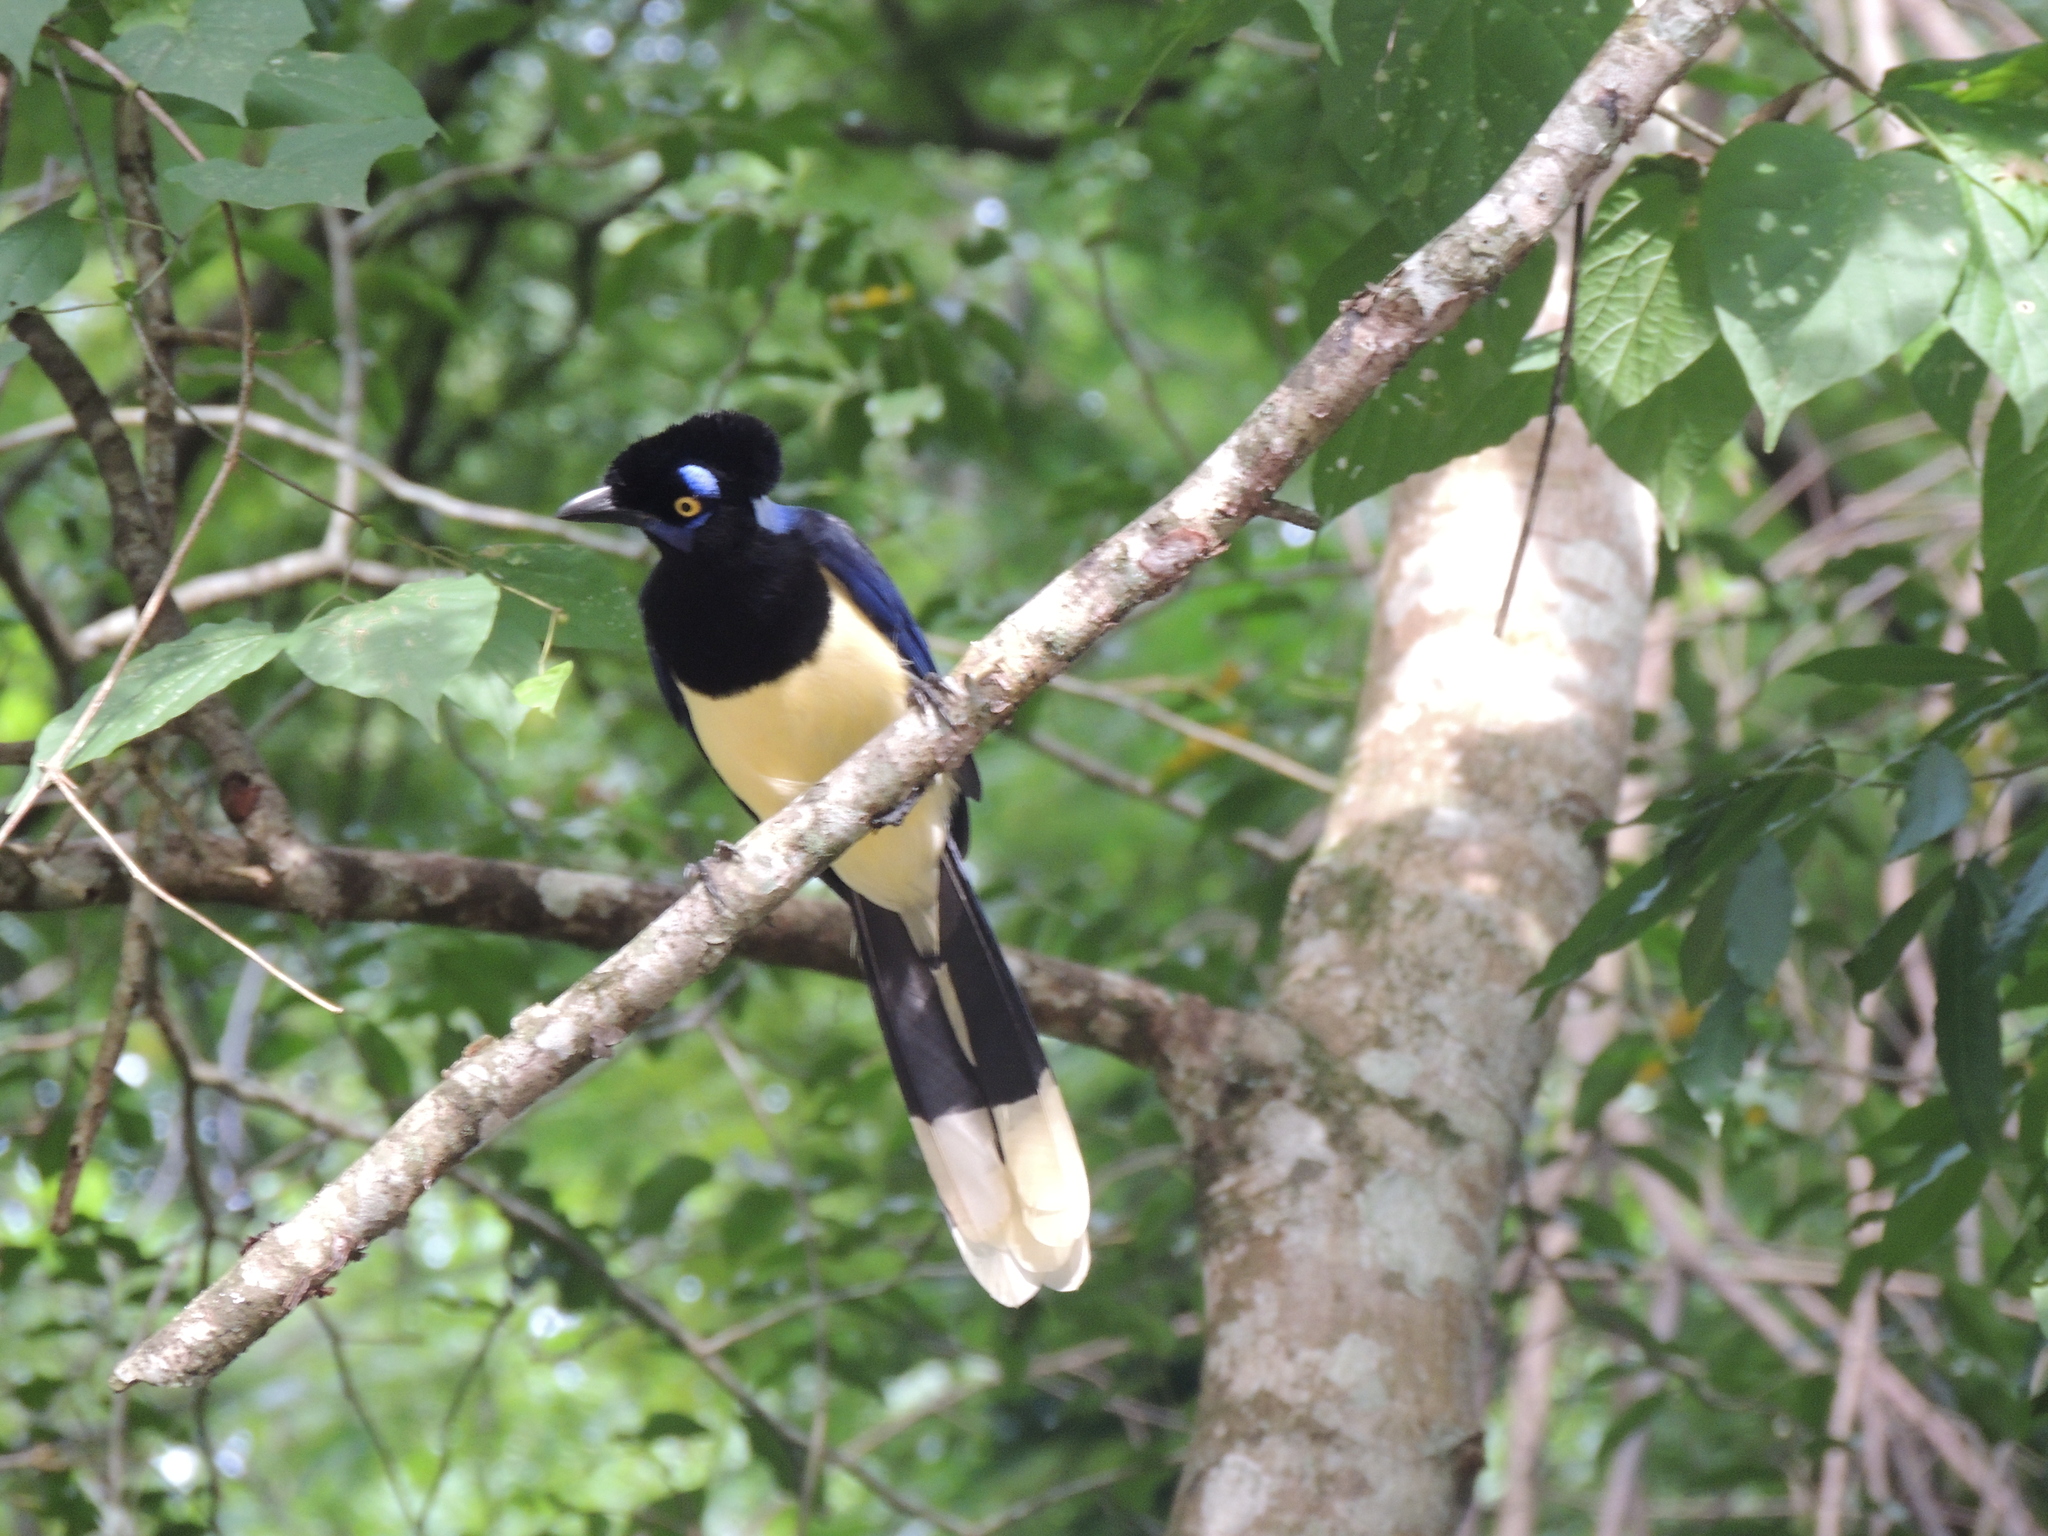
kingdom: Animalia
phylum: Chordata
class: Aves
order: Passeriformes
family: Corvidae
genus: Cyanocorax
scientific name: Cyanocorax chrysops
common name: Plush-crested jay
